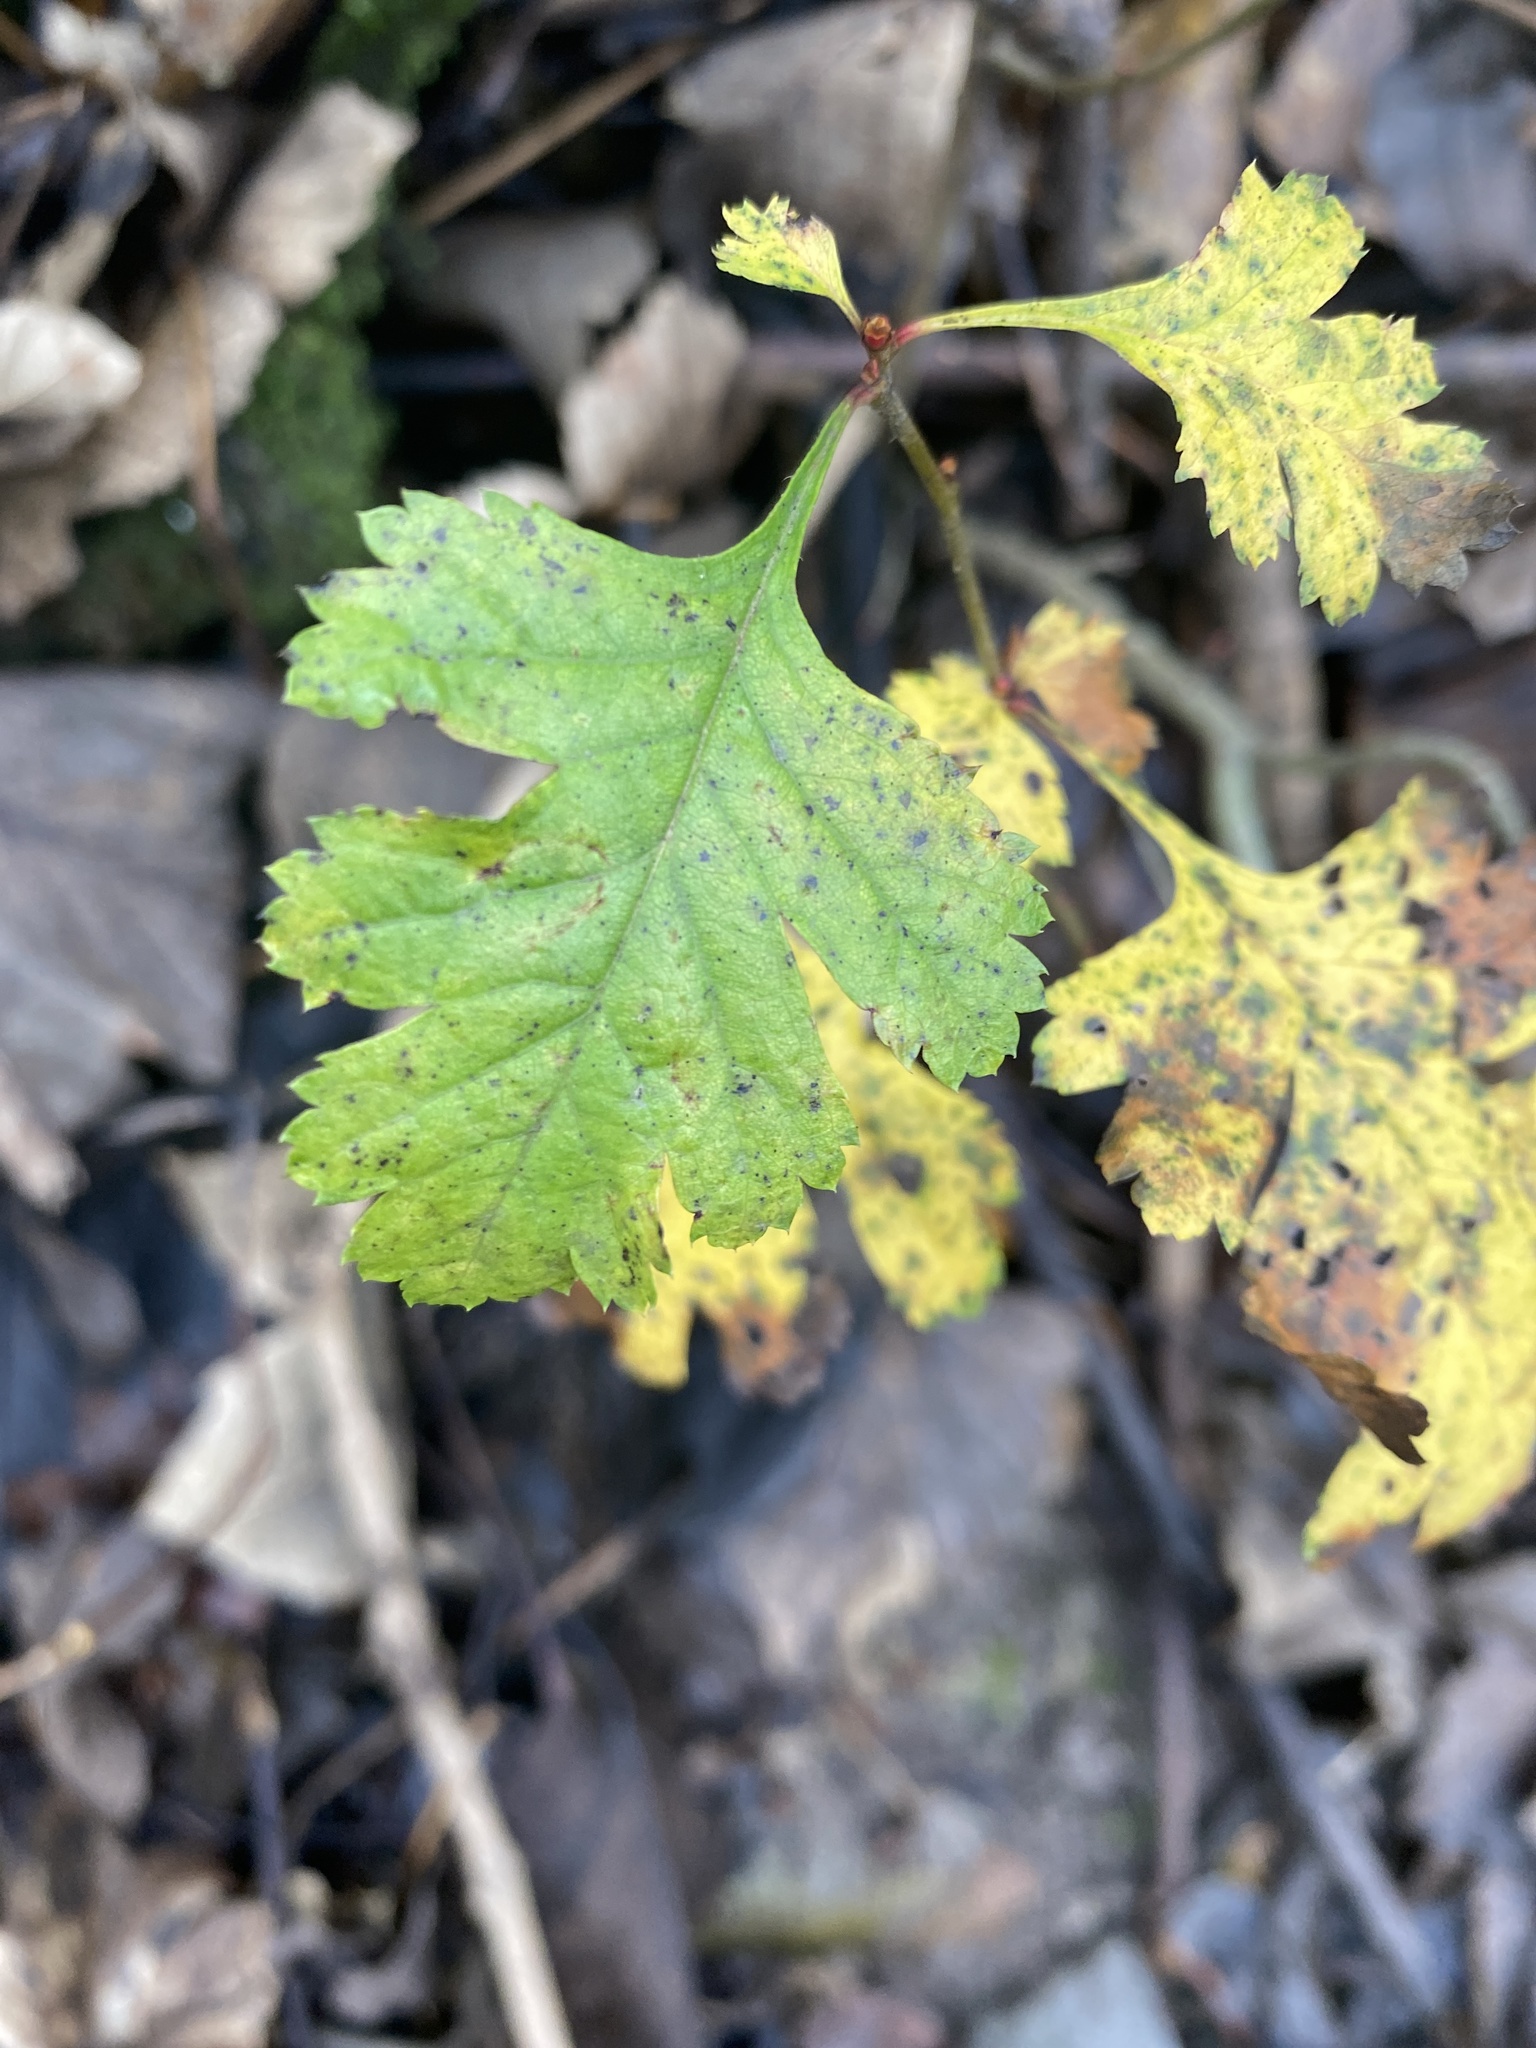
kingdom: Plantae
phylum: Tracheophyta
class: Magnoliopsida
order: Rosales
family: Rosaceae
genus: Crataegus
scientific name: Crataegus monogyna
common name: Hawthorn
